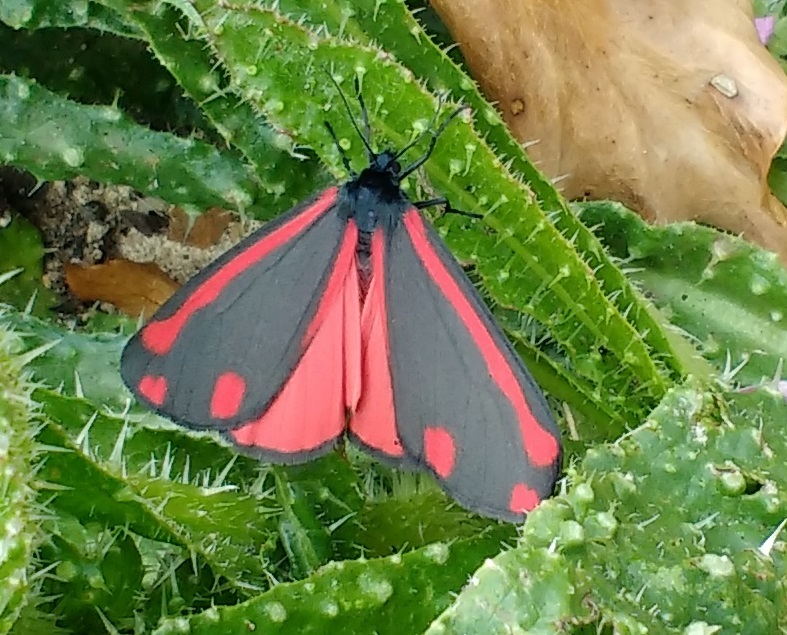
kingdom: Animalia
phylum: Arthropoda
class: Insecta
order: Lepidoptera
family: Erebidae
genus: Tyria
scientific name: Tyria jacobaeae
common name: Cinnabar
